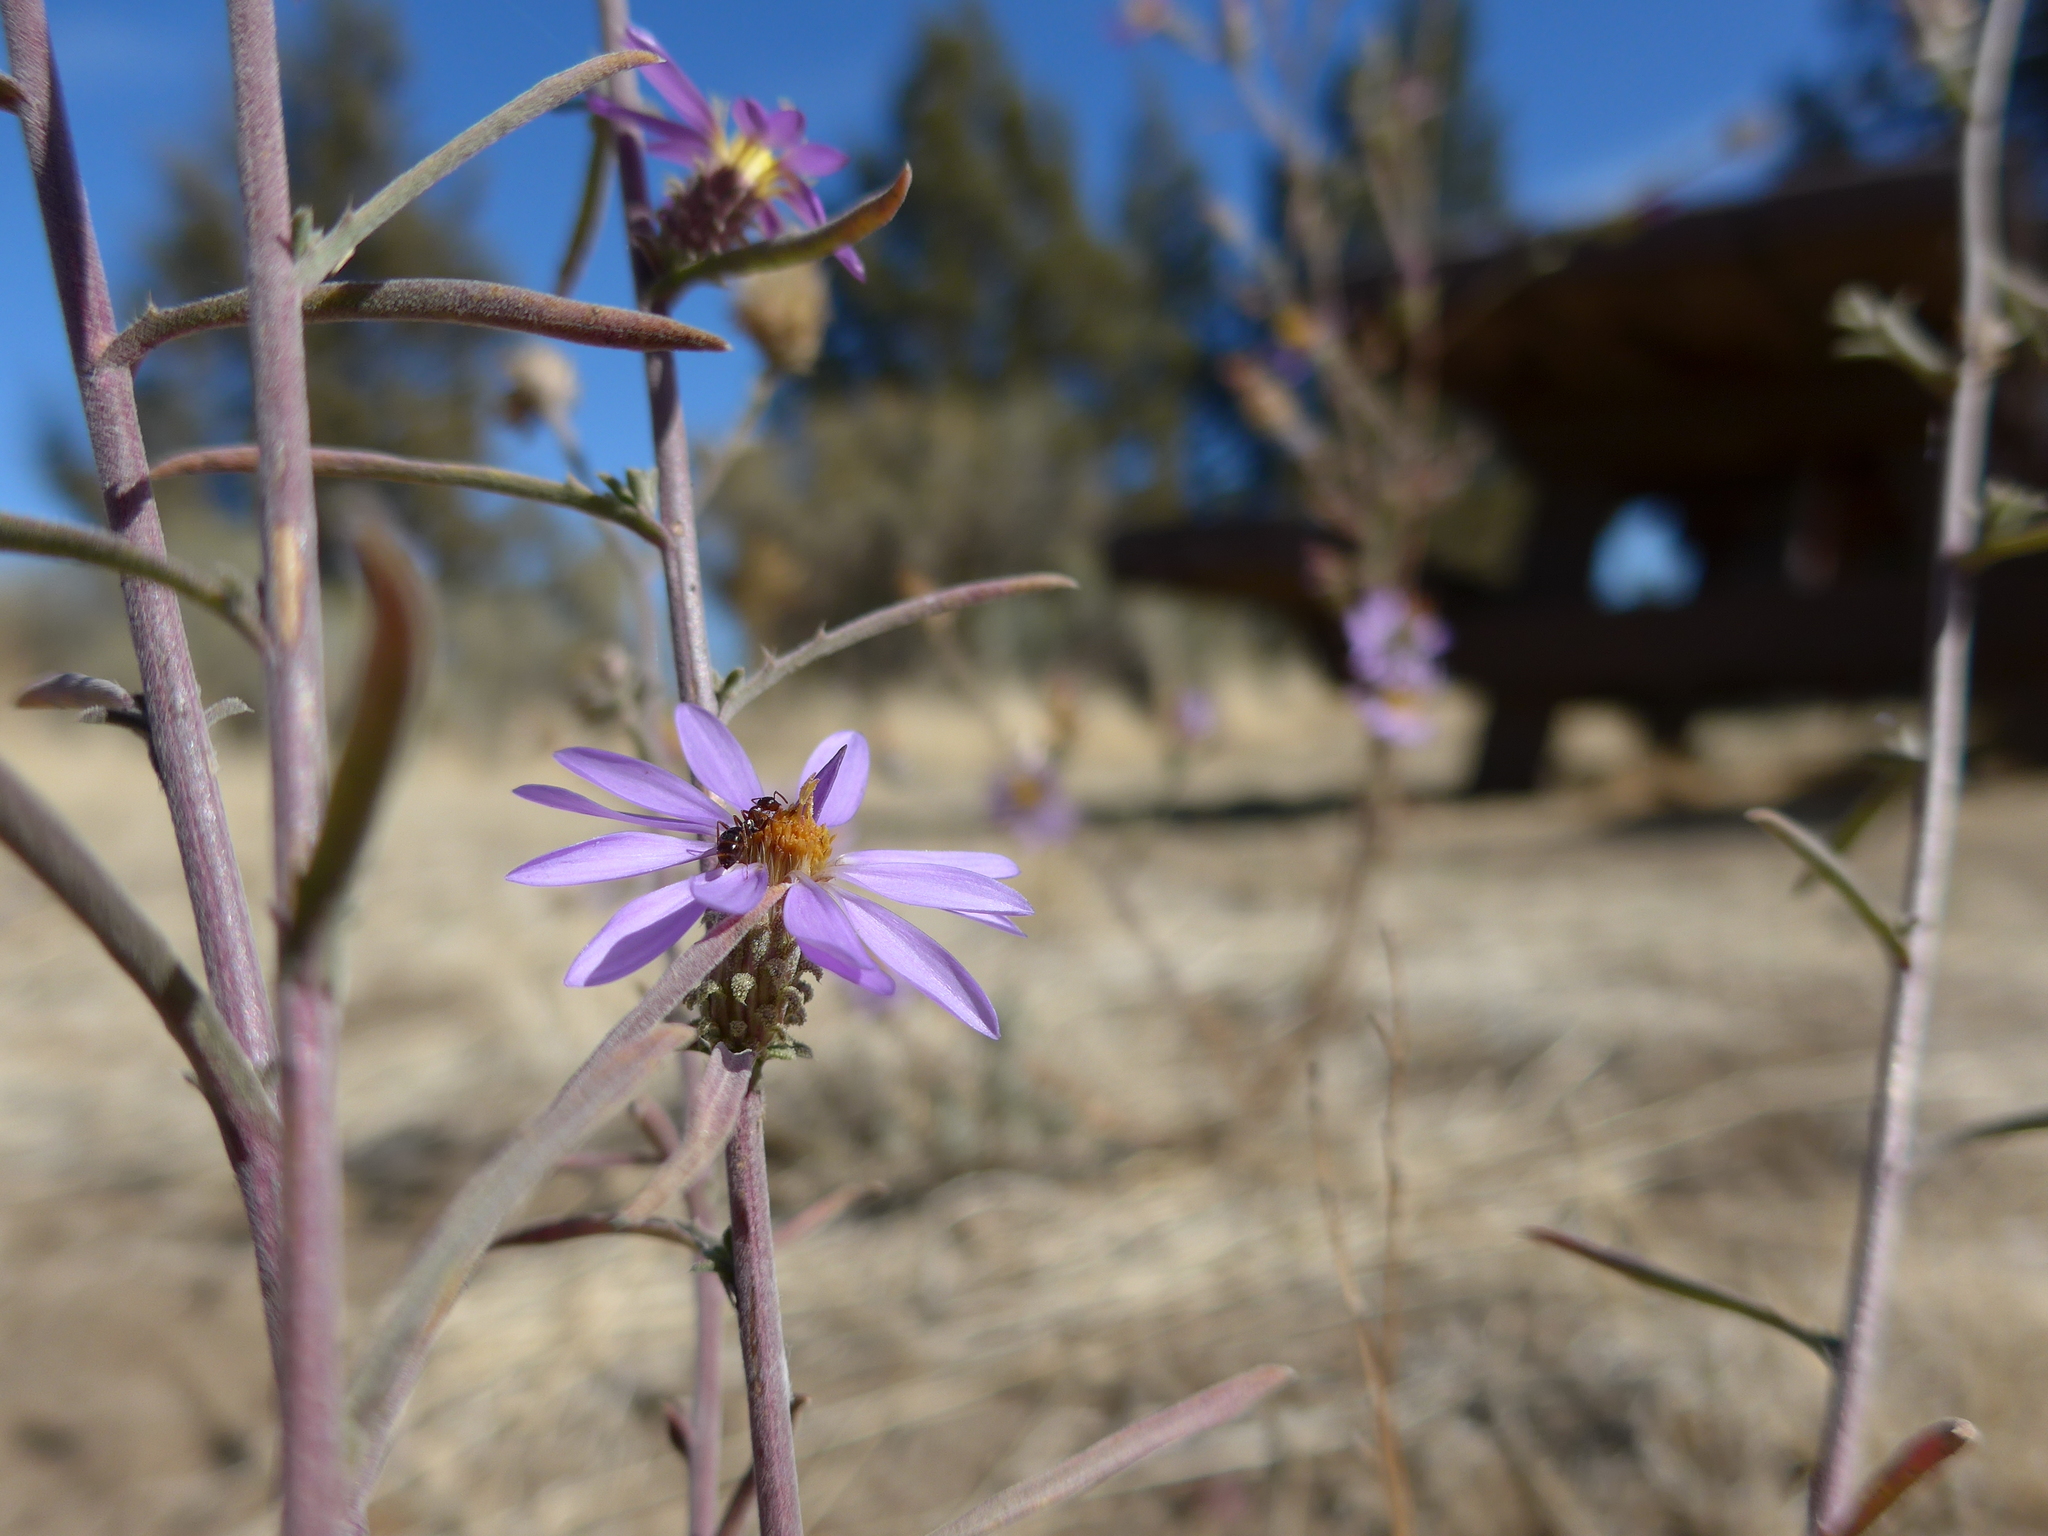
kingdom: Plantae
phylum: Tracheophyta
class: Magnoliopsida
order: Asterales
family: Asteraceae
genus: Dieteria
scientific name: Dieteria canescens
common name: Hoary-aster
